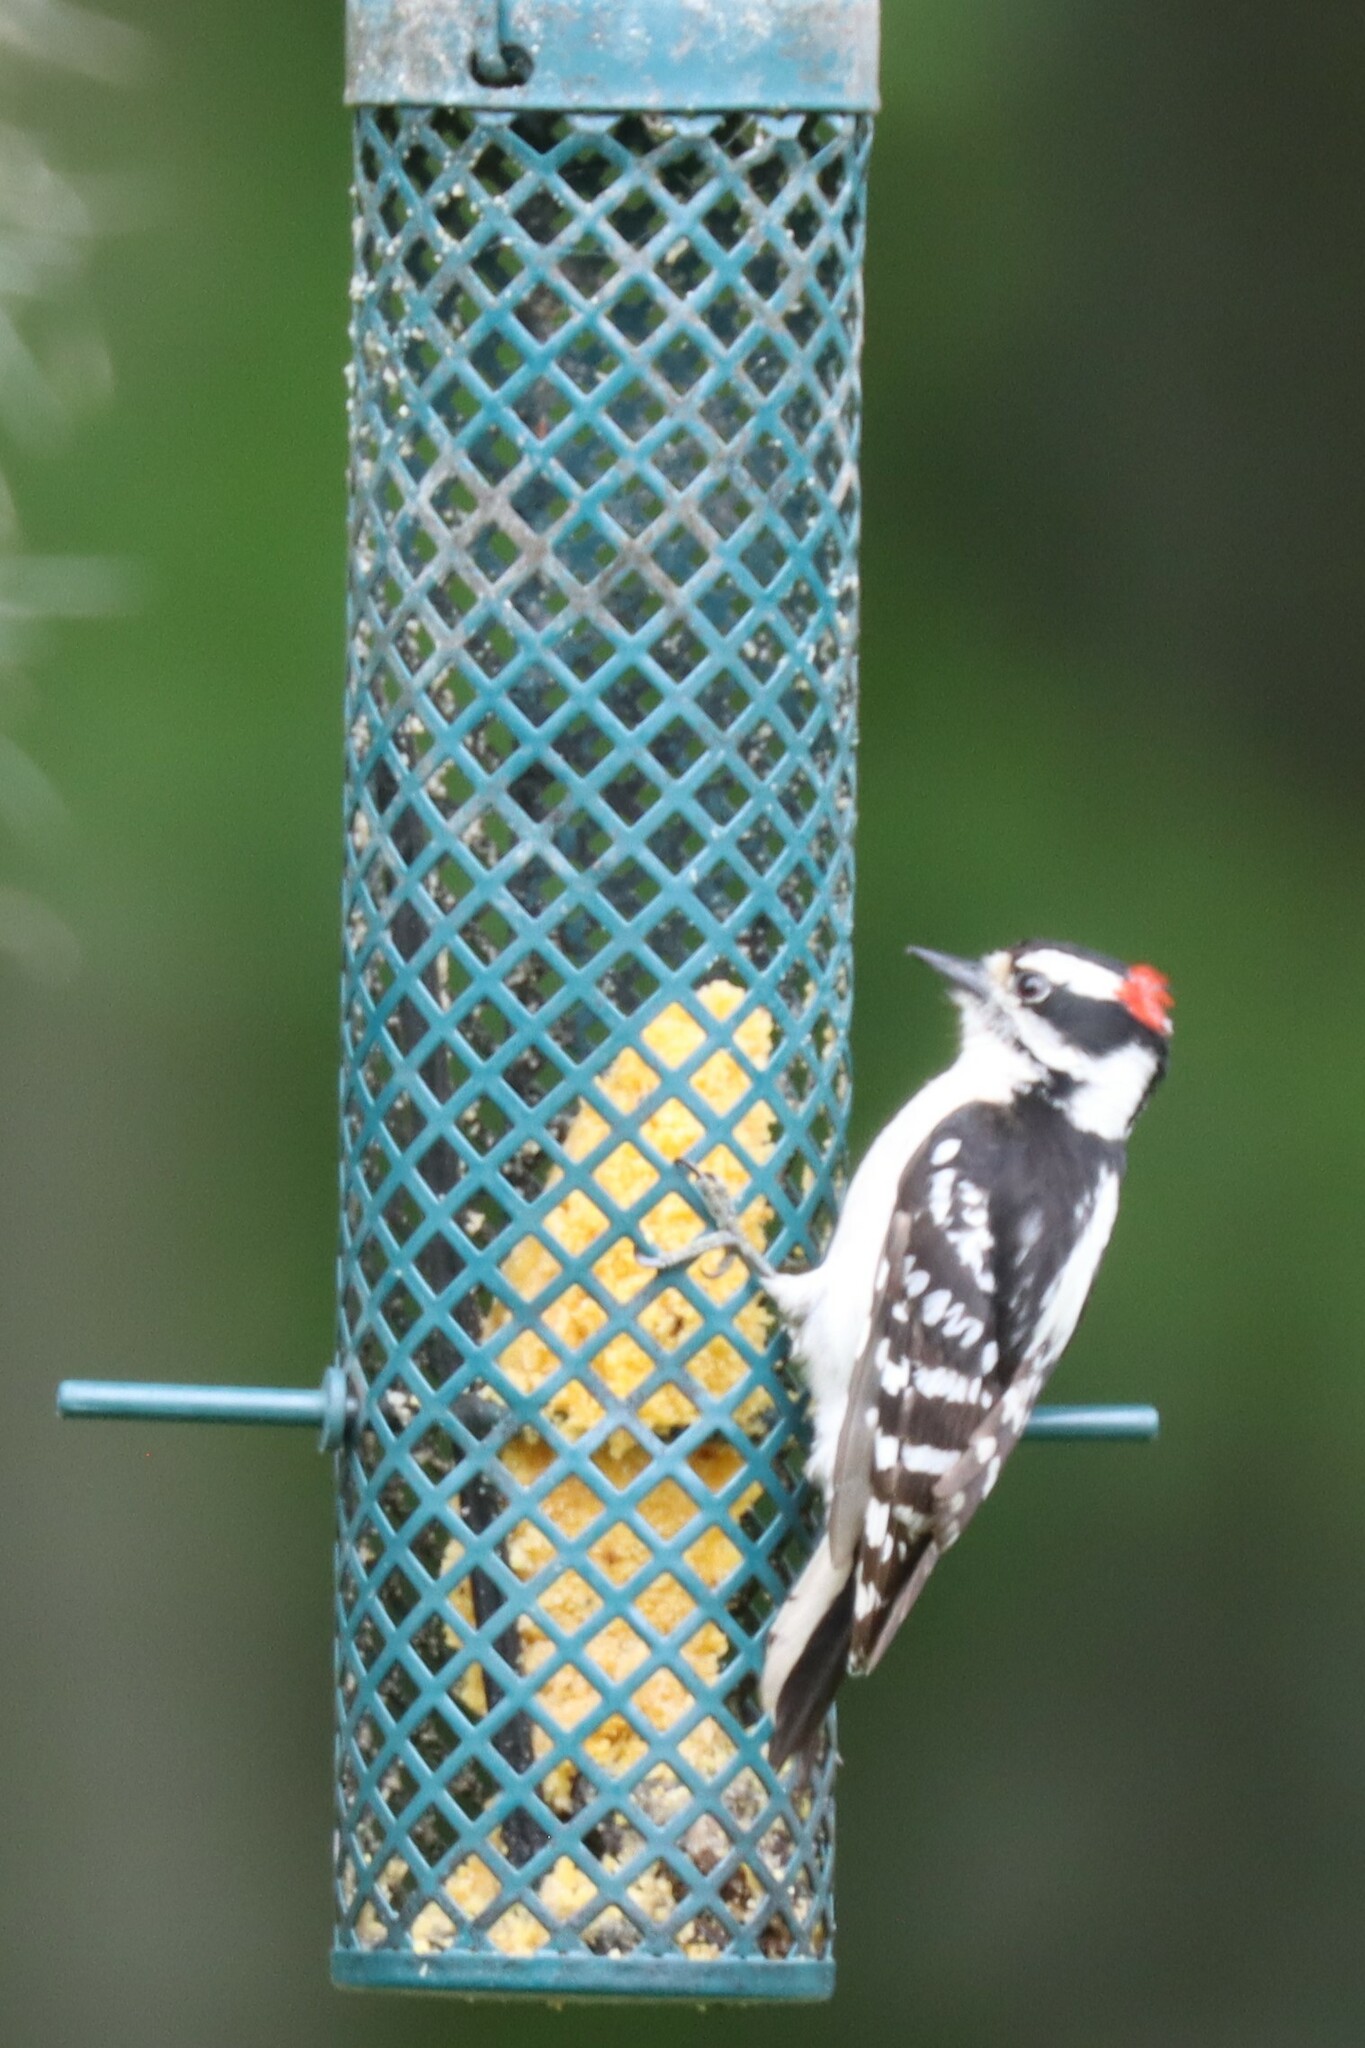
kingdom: Animalia
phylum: Chordata
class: Aves
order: Piciformes
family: Picidae
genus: Dryobates
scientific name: Dryobates pubescens
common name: Downy woodpecker
